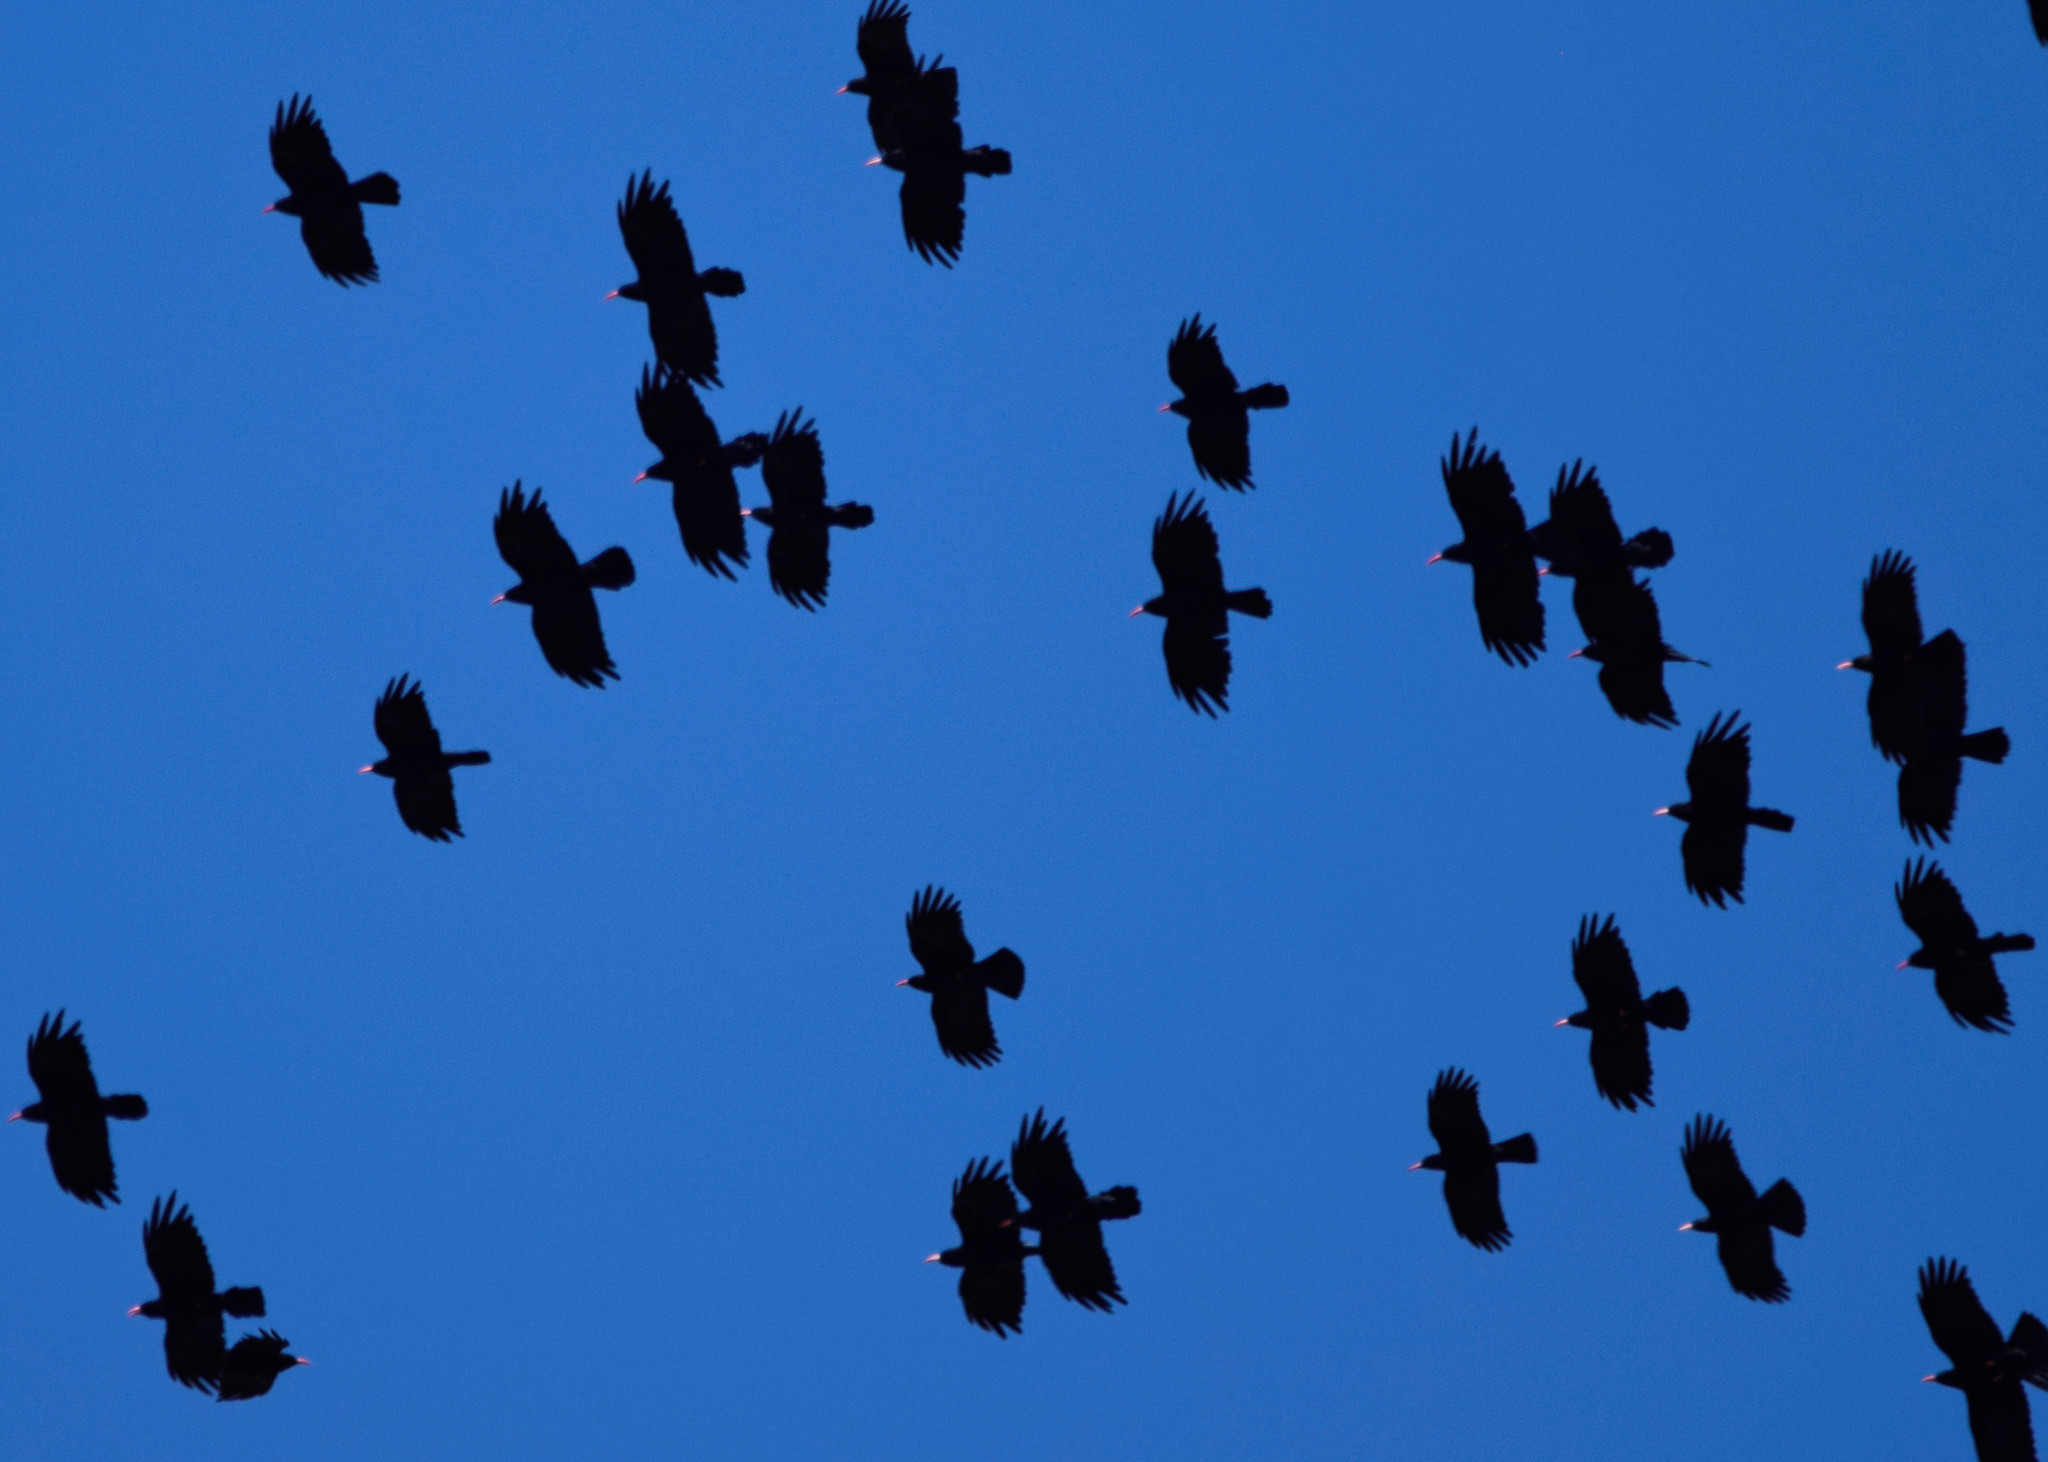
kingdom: Animalia
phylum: Chordata
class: Aves
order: Passeriformes
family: Corvidae
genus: Pyrrhocorax
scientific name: Pyrrhocorax pyrrhocorax
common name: Red-billed chough
